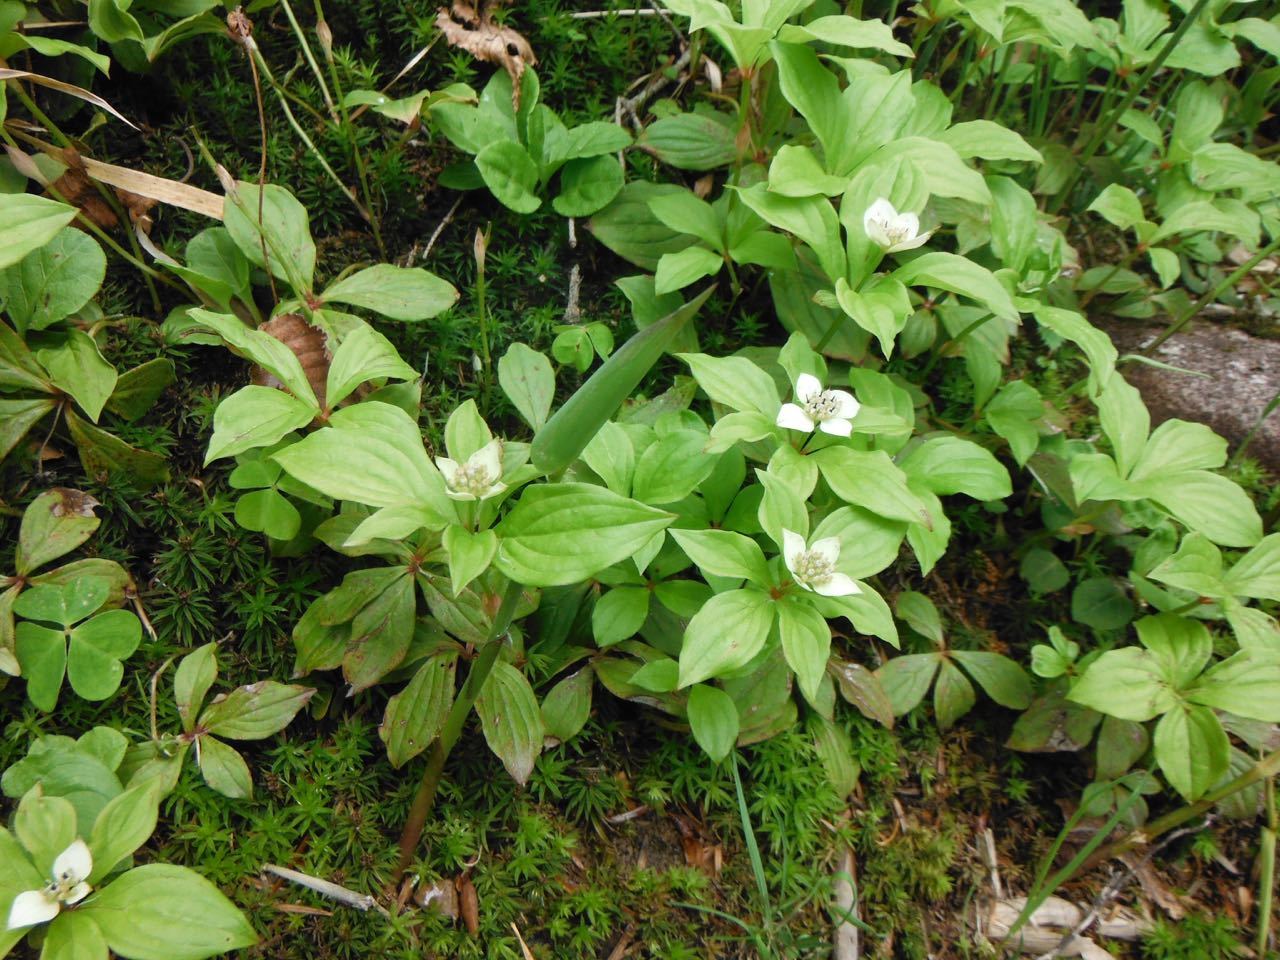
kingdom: Plantae
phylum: Tracheophyta
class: Magnoliopsida
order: Cornales
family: Cornaceae
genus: Cornus
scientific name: Cornus canadensis
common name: Creeping dogwood
